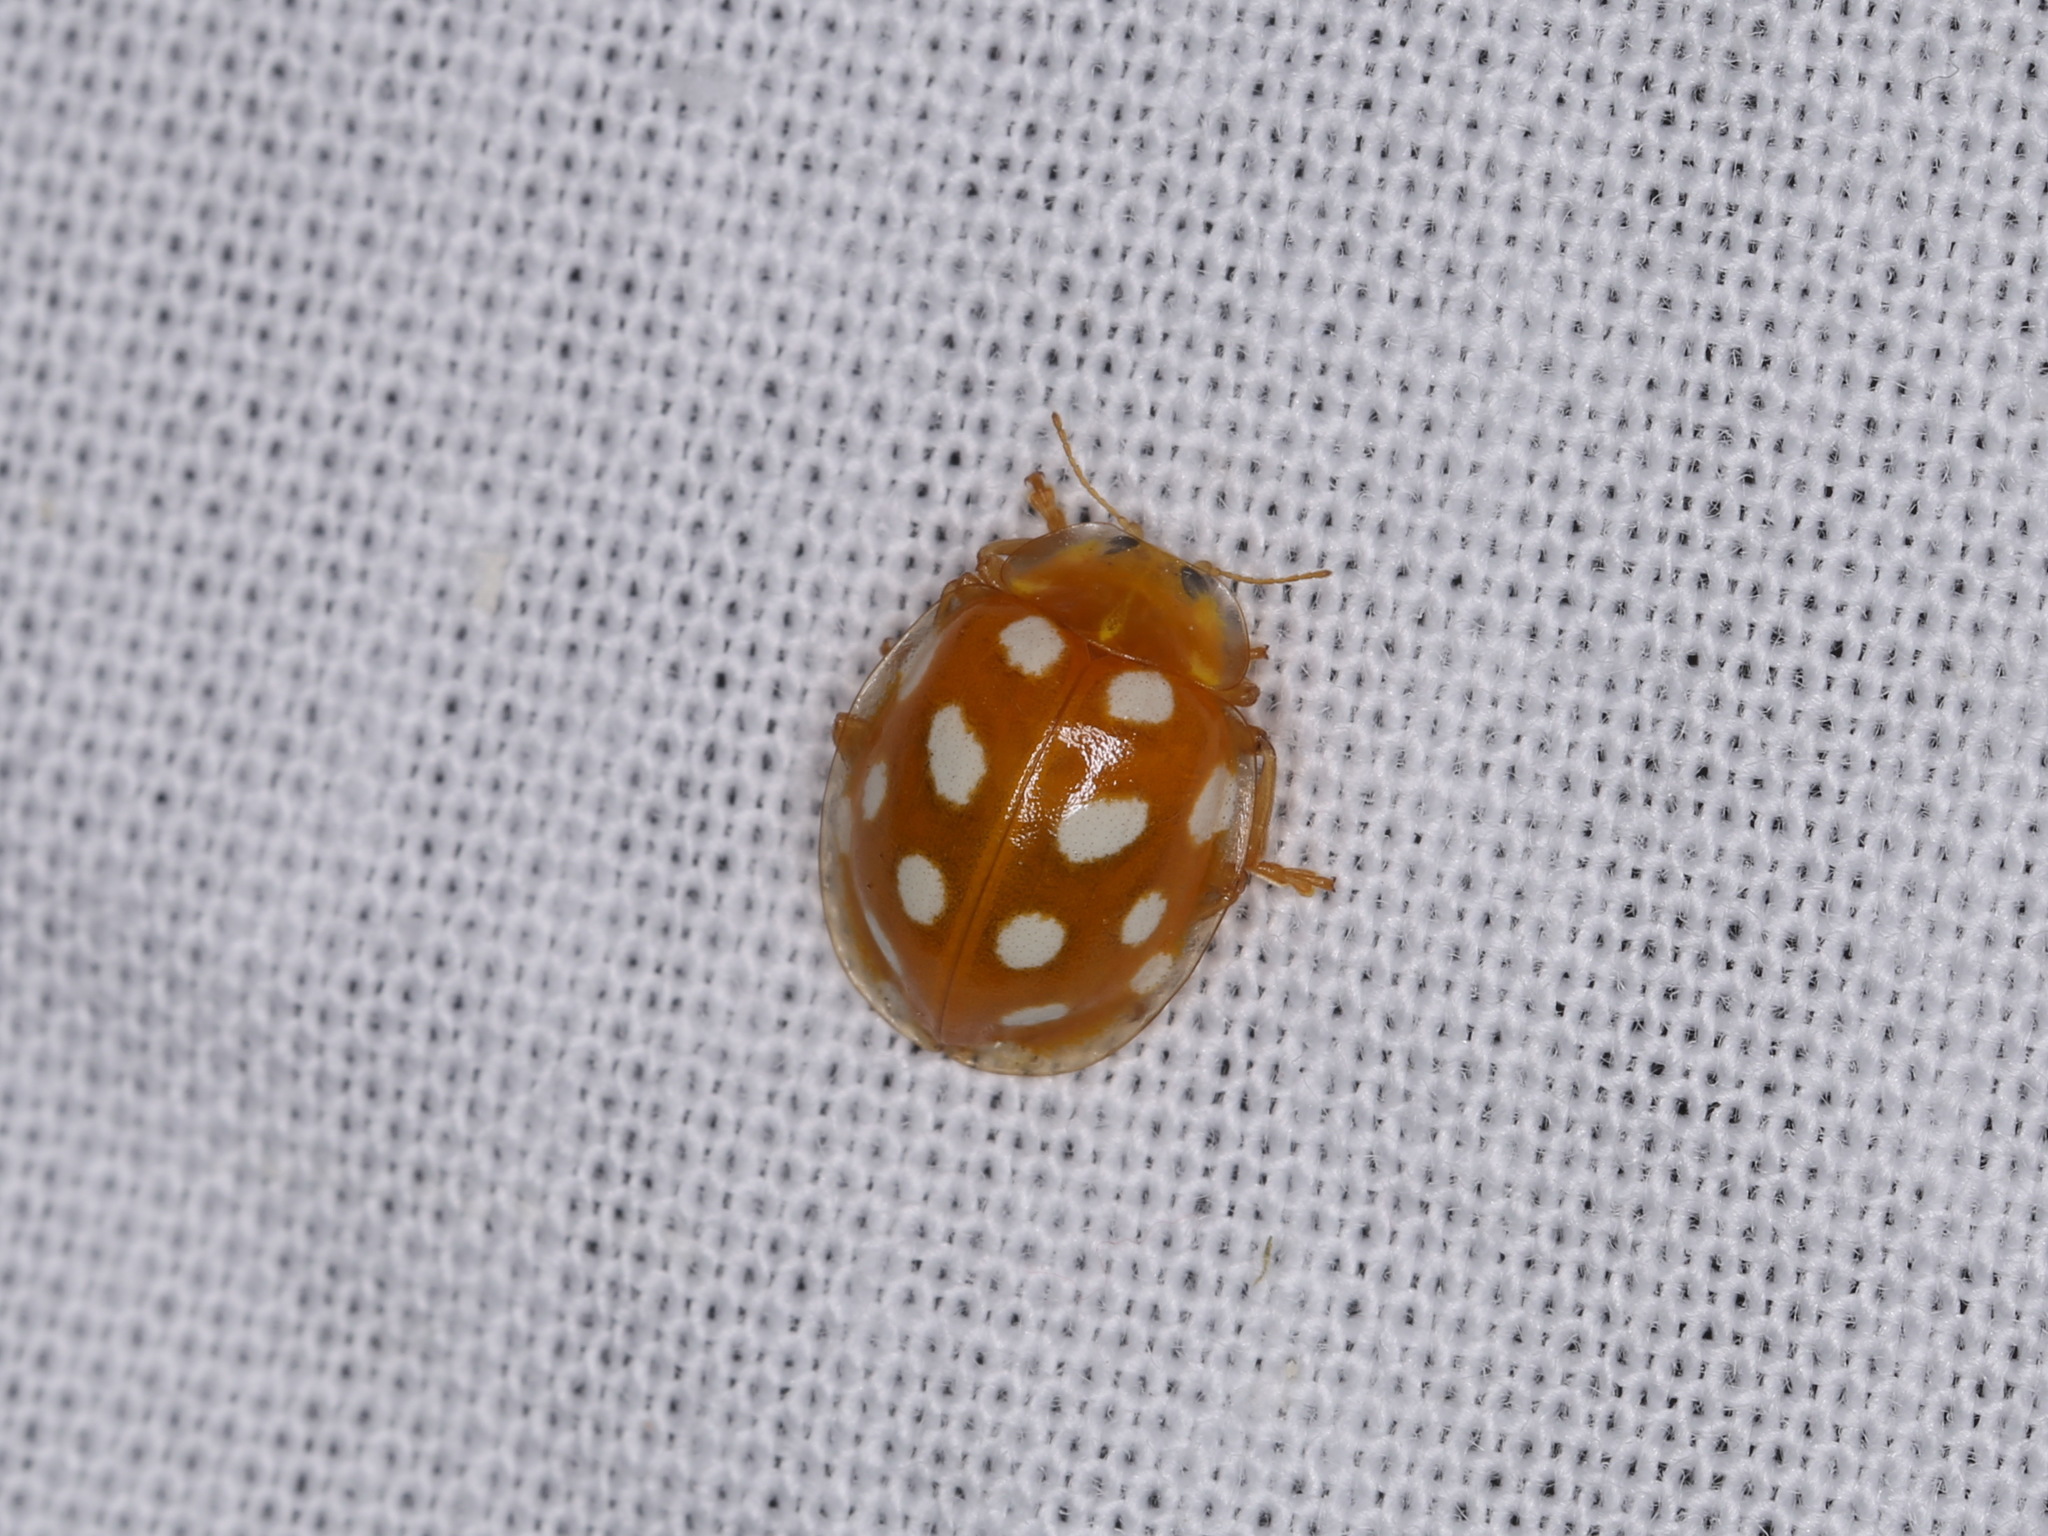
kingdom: Animalia
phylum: Arthropoda
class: Insecta
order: Coleoptera
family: Coccinellidae
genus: Halyzia
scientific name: Halyzia sedecimguttata
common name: Orange ladybird
